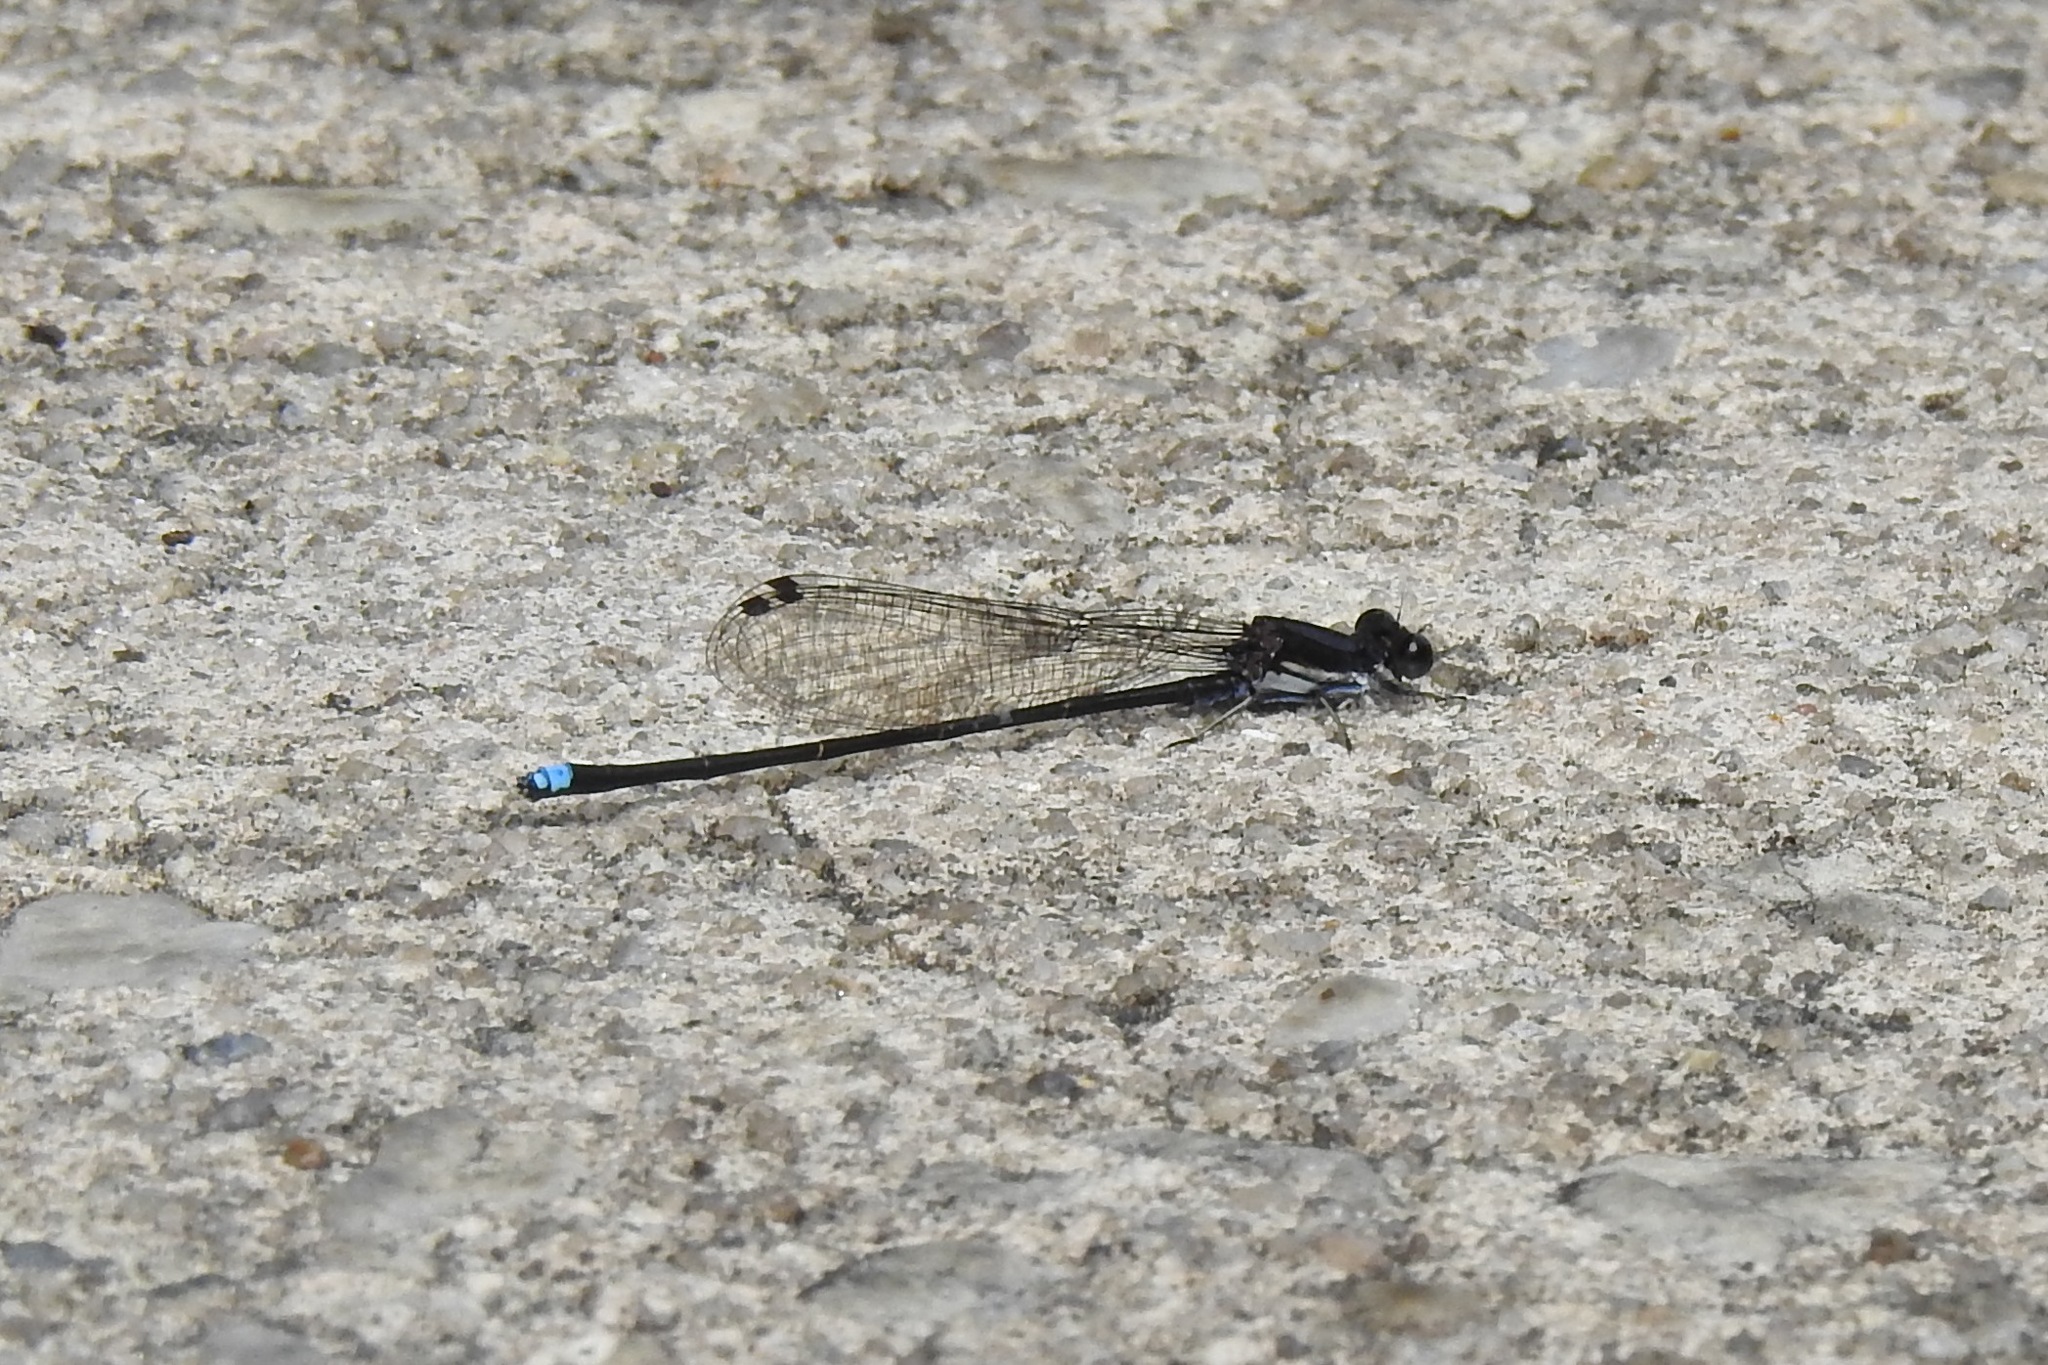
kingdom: Animalia
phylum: Arthropoda
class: Insecta
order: Odonata
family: Coenagrionidae
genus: Argia
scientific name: Argia tibialis
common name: Blue-tipped dancer
